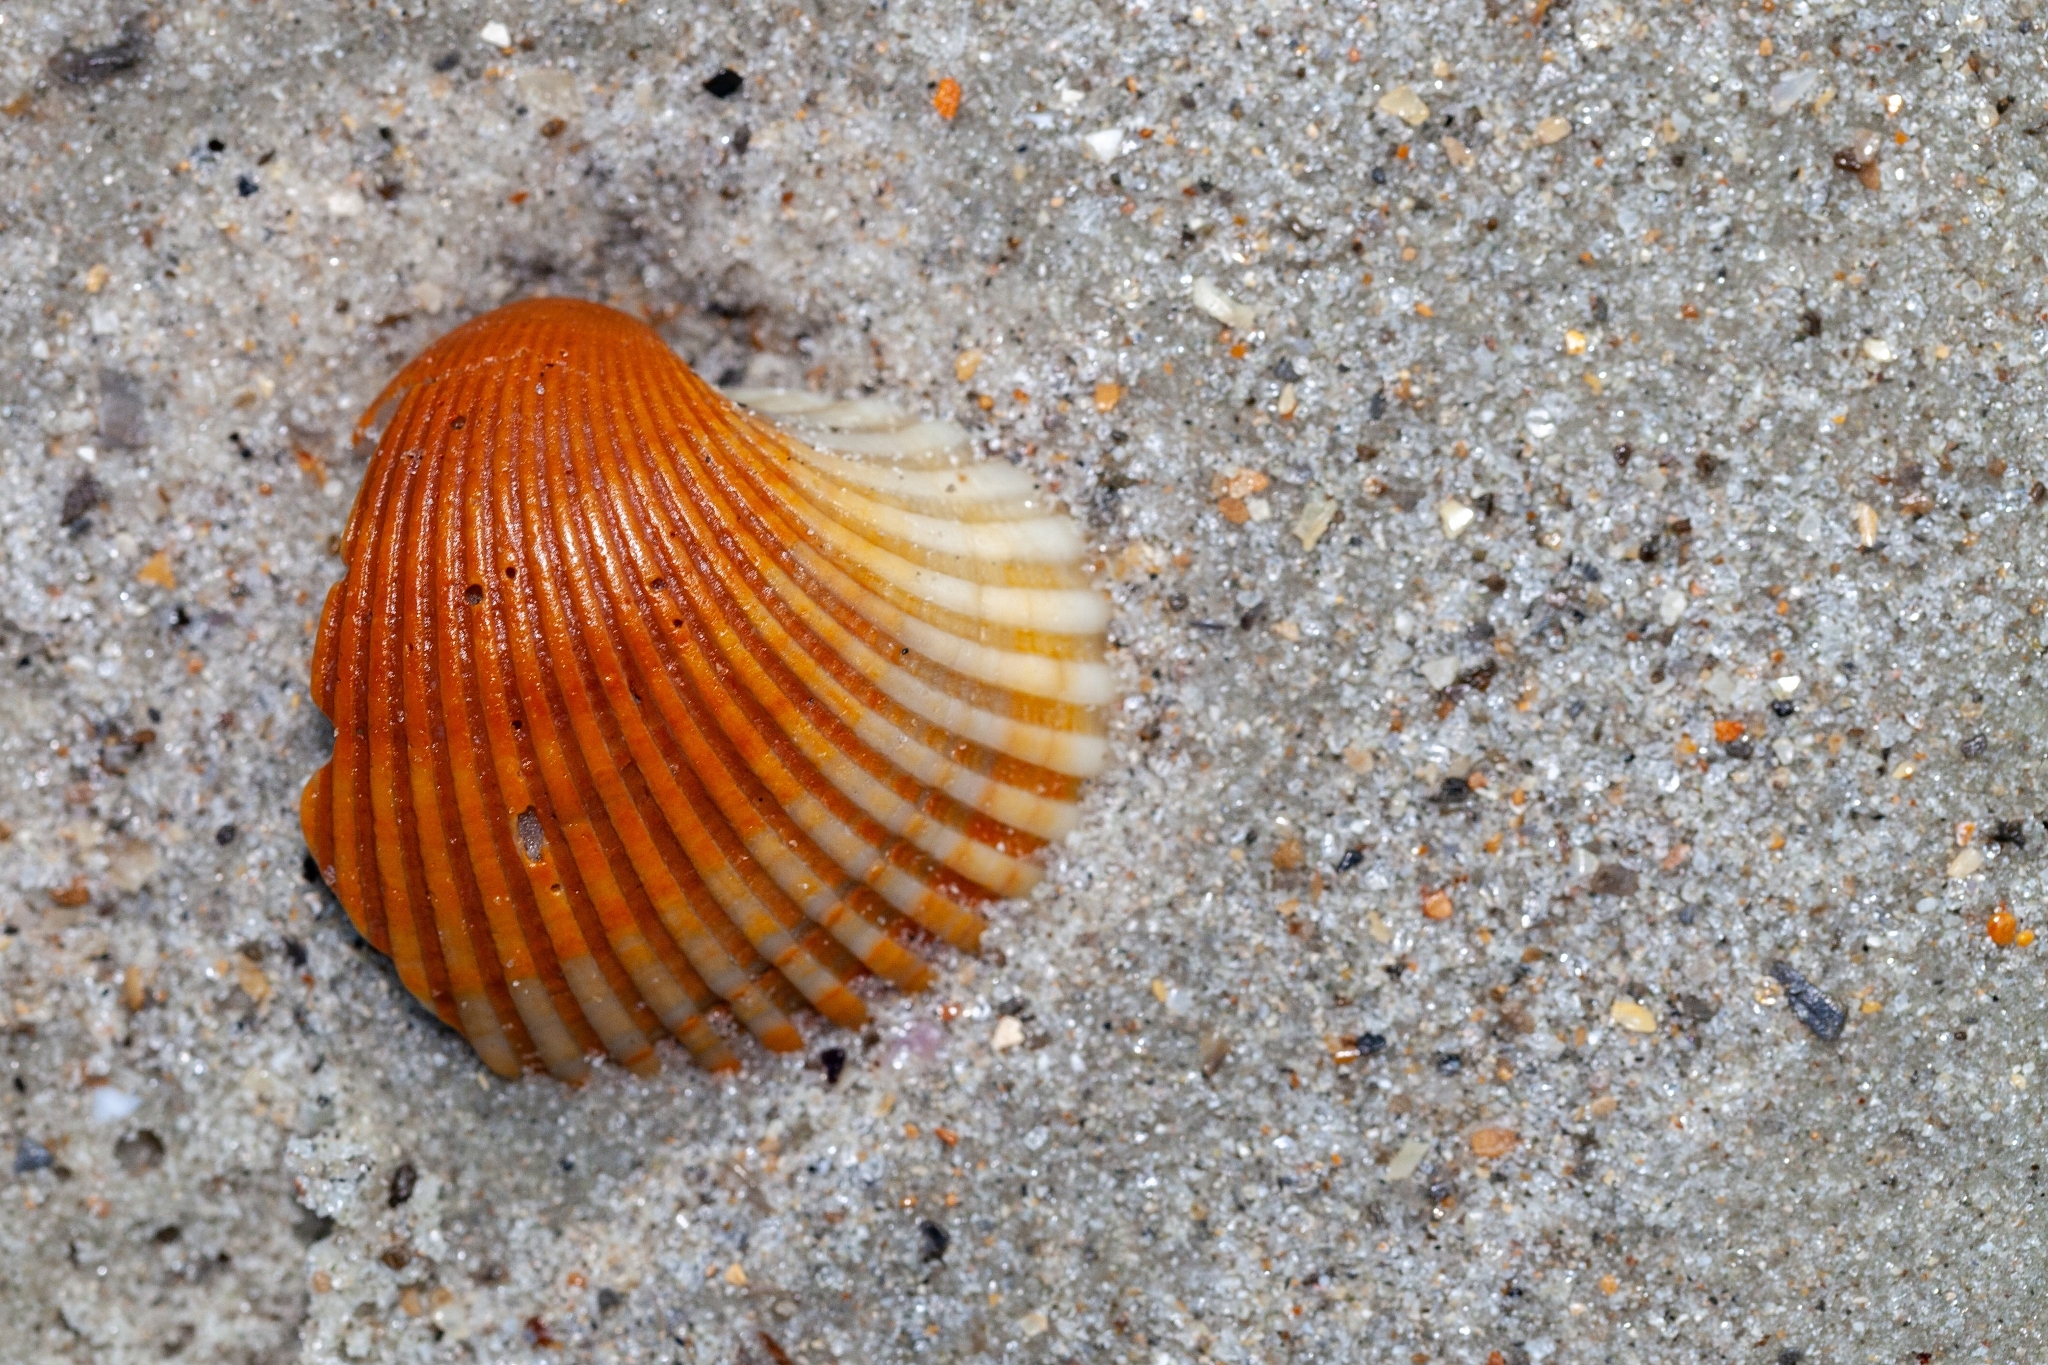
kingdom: Animalia
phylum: Mollusca
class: Bivalvia
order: Arcida
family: Arcidae
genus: Lunarca
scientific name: Lunarca ovalis
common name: Blood ark
